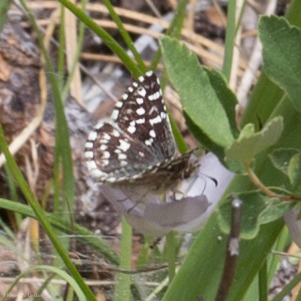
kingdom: Animalia
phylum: Arthropoda
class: Insecta
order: Lepidoptera
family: Hesperiidae
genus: Pyrgus
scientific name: Pyrgus ruralis
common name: Two-banded checkered-skipper
